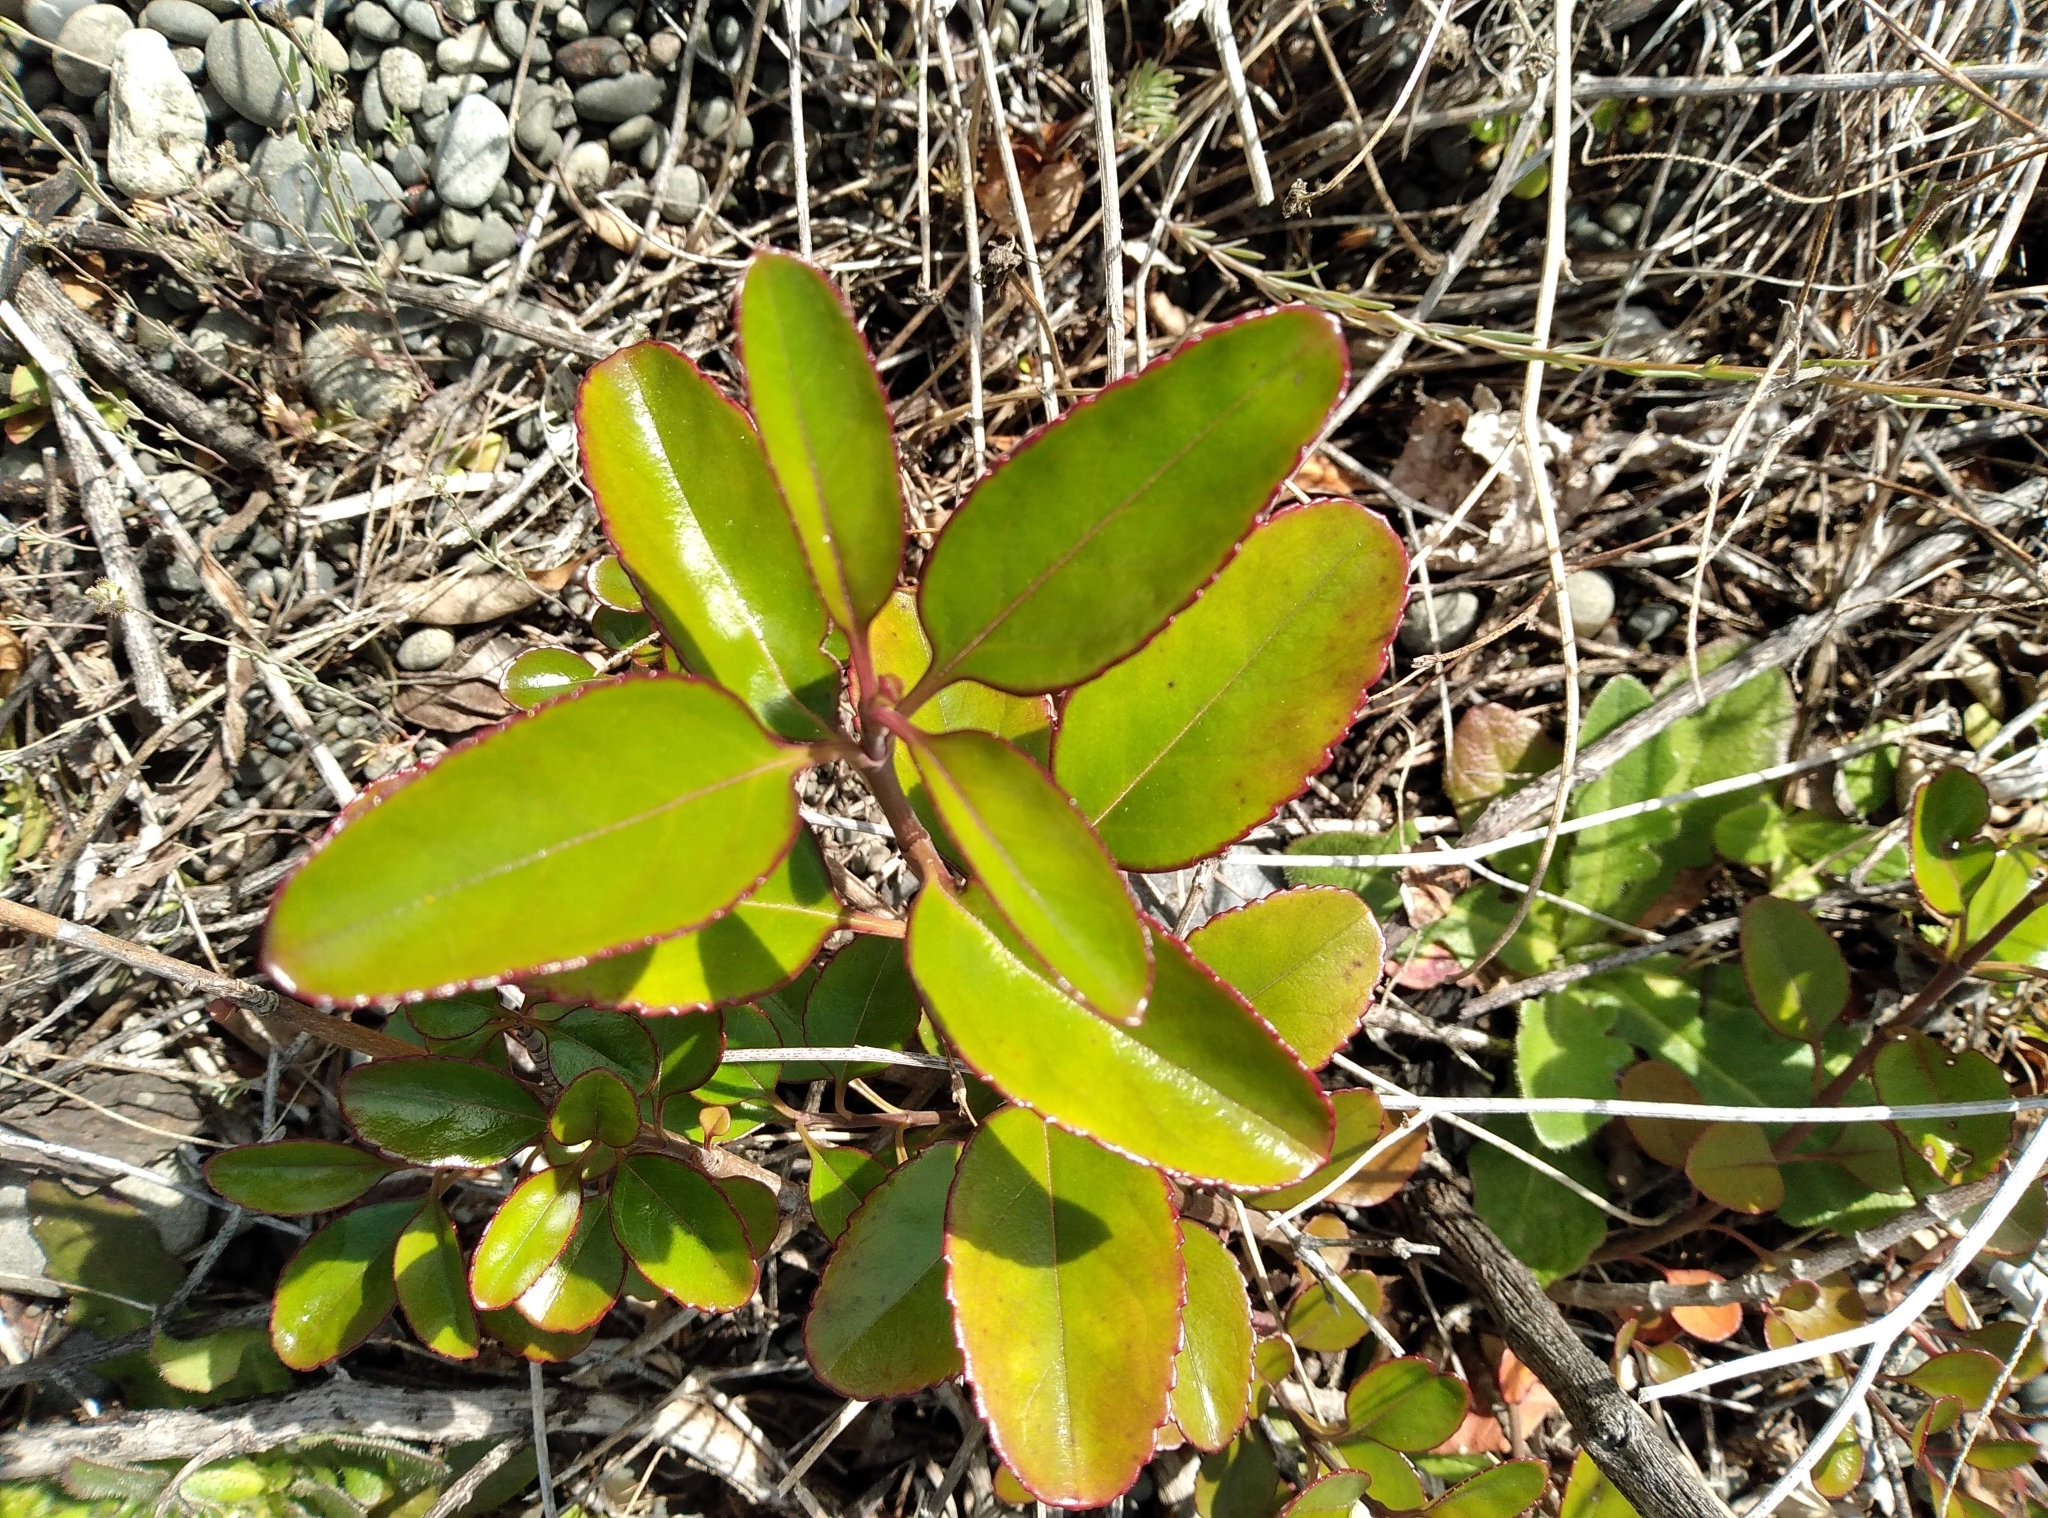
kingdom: Plantae
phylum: Tracheophyta
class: Magnoliopsida
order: Lamiales
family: Plantaginaceae
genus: Veronica
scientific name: Veronica hulkeana
